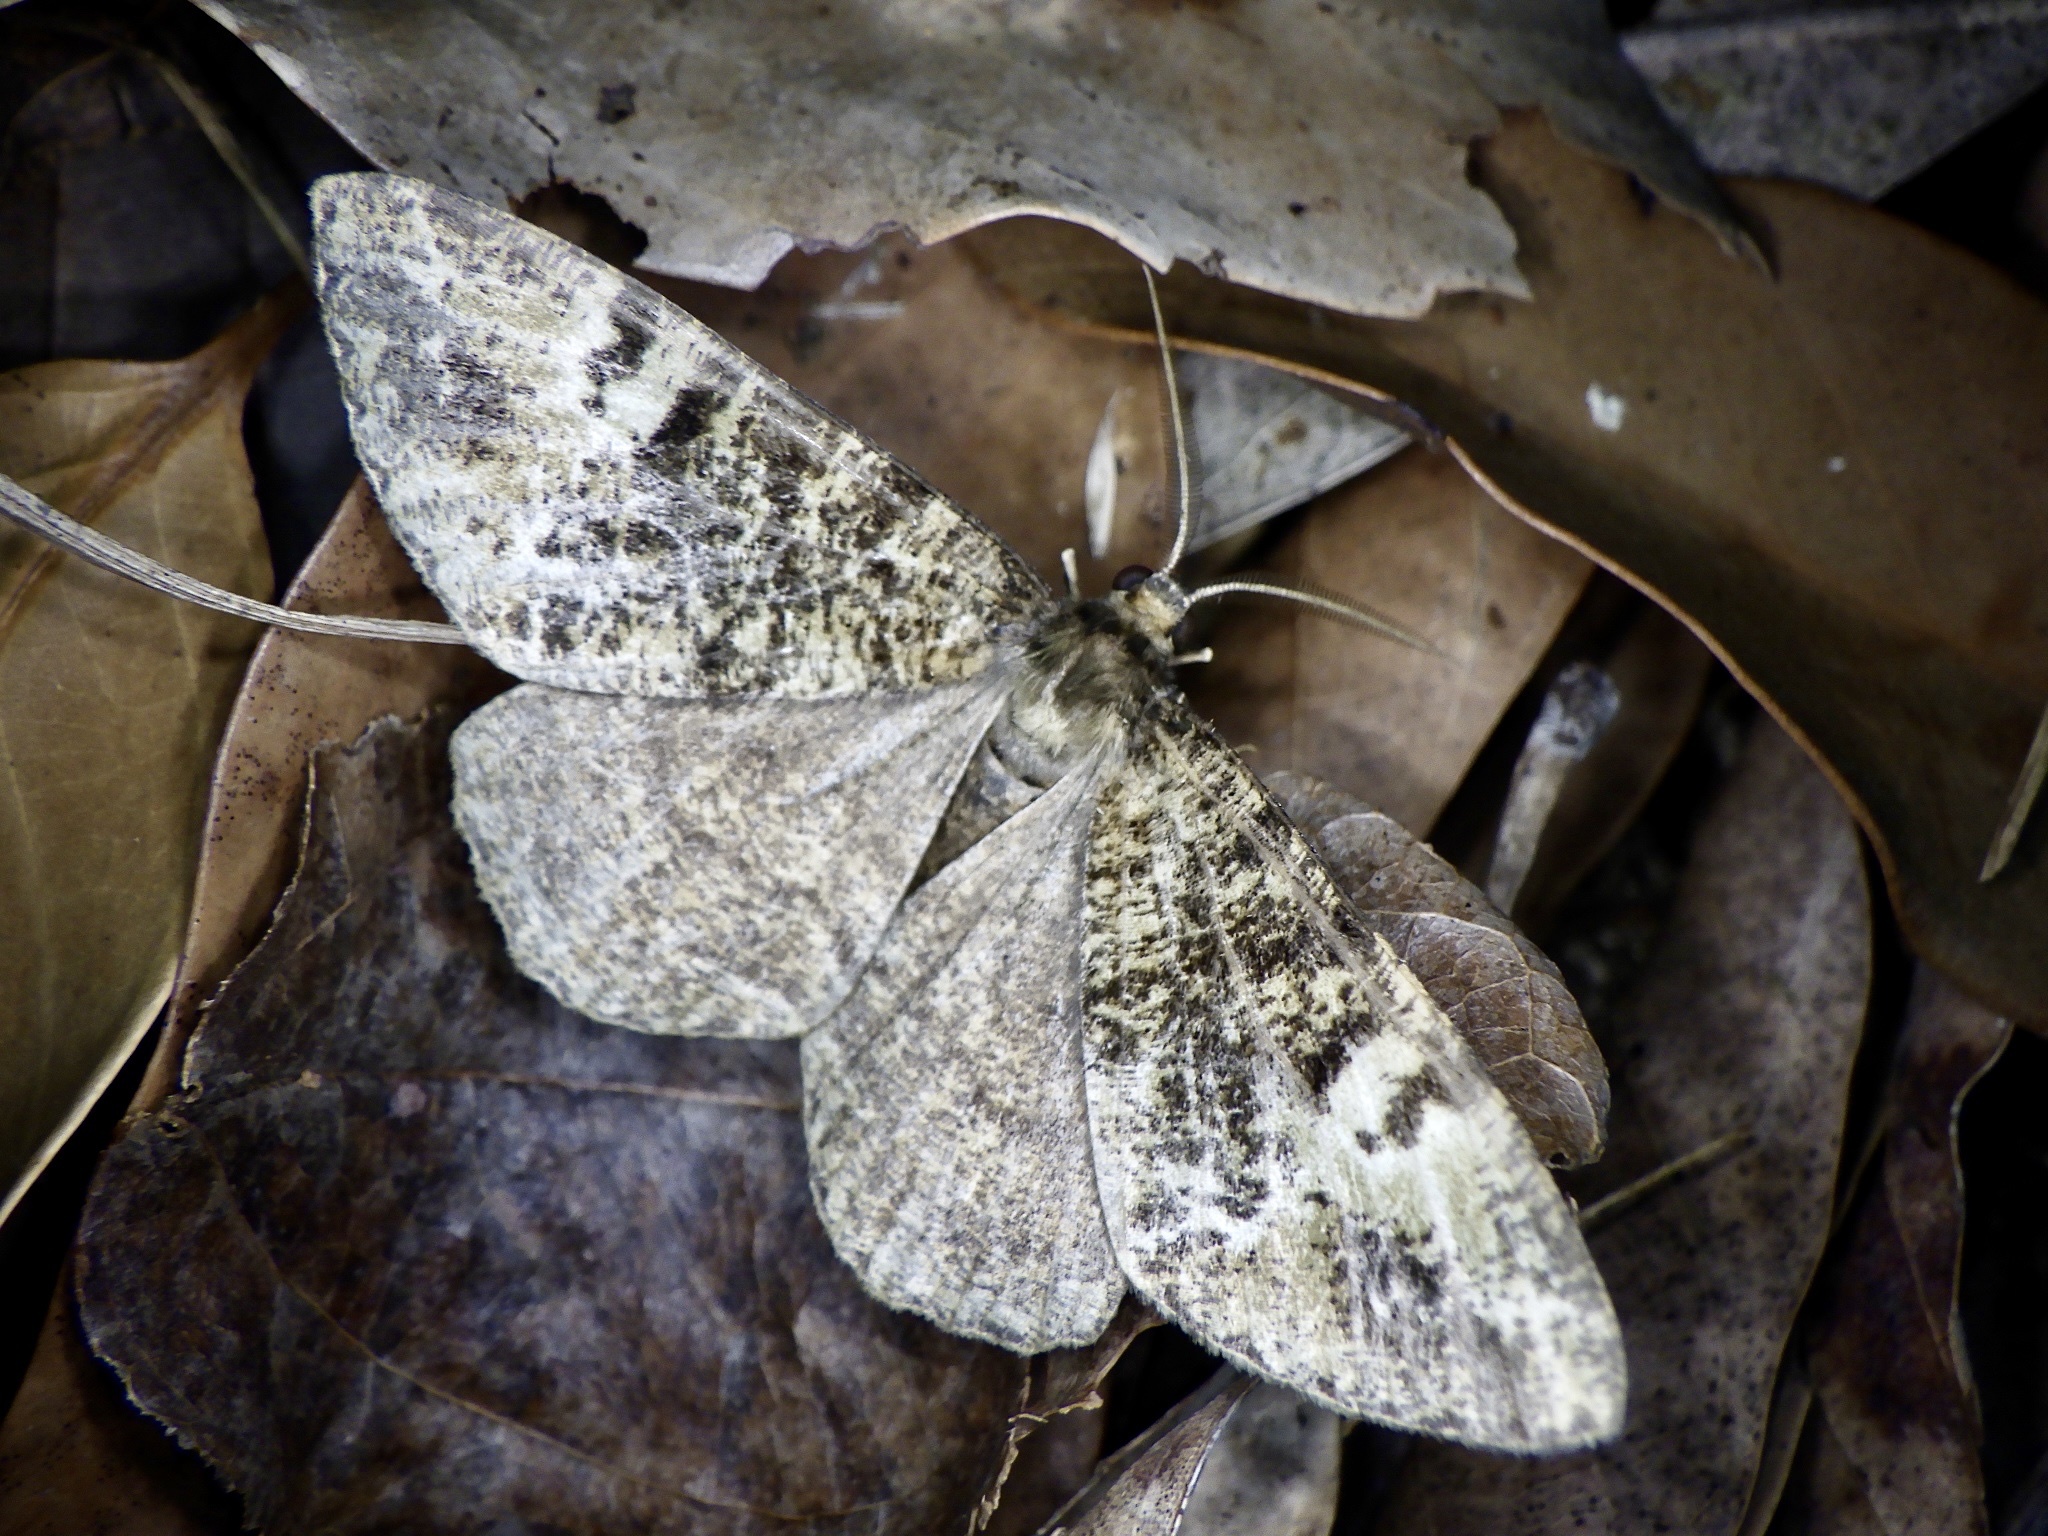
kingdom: Animalia
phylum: Arthropoda
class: Insecta
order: Lepidoptera
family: Geometridae
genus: Duliophyle
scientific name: Duliophyle majuscularia
